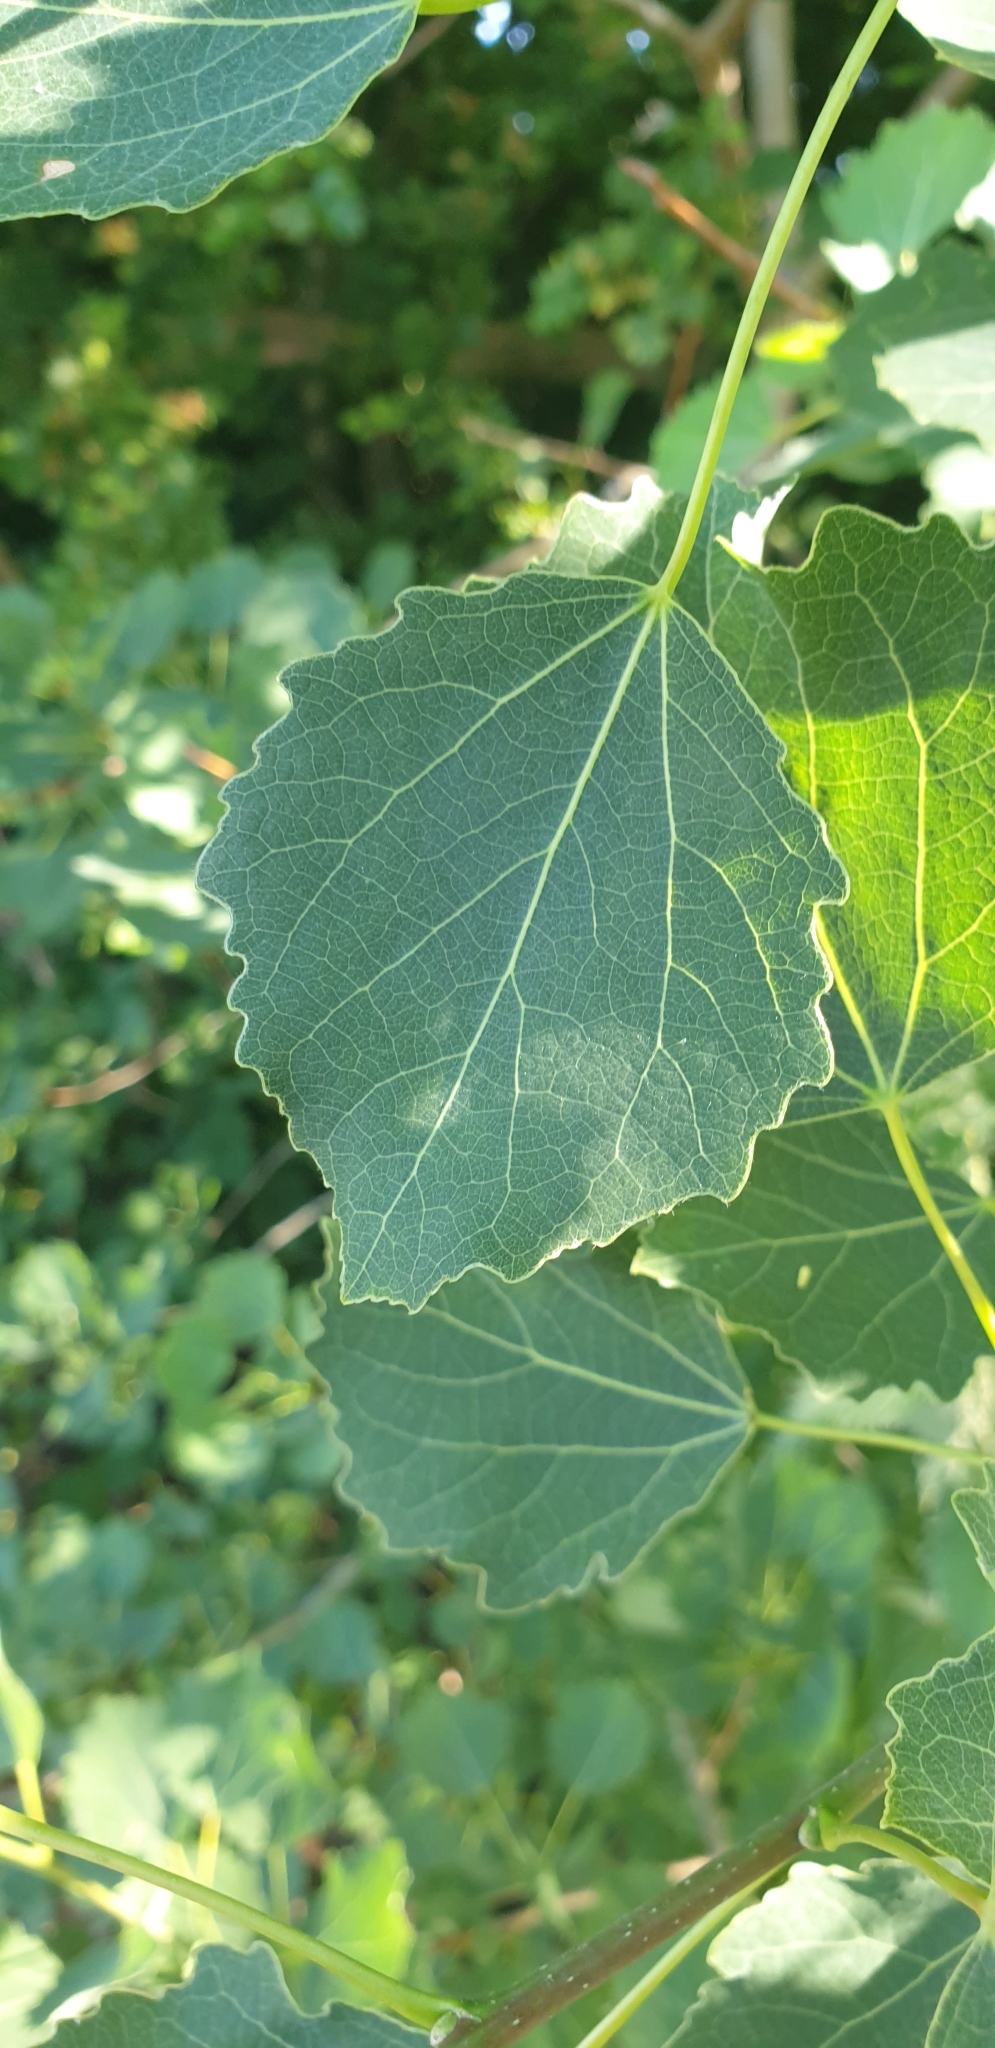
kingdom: Plantae
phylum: Tracheophyta
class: Magnoliopsida
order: Malpighiales
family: Salicaceae
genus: Populus
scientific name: Populus tremula
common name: European aspen
